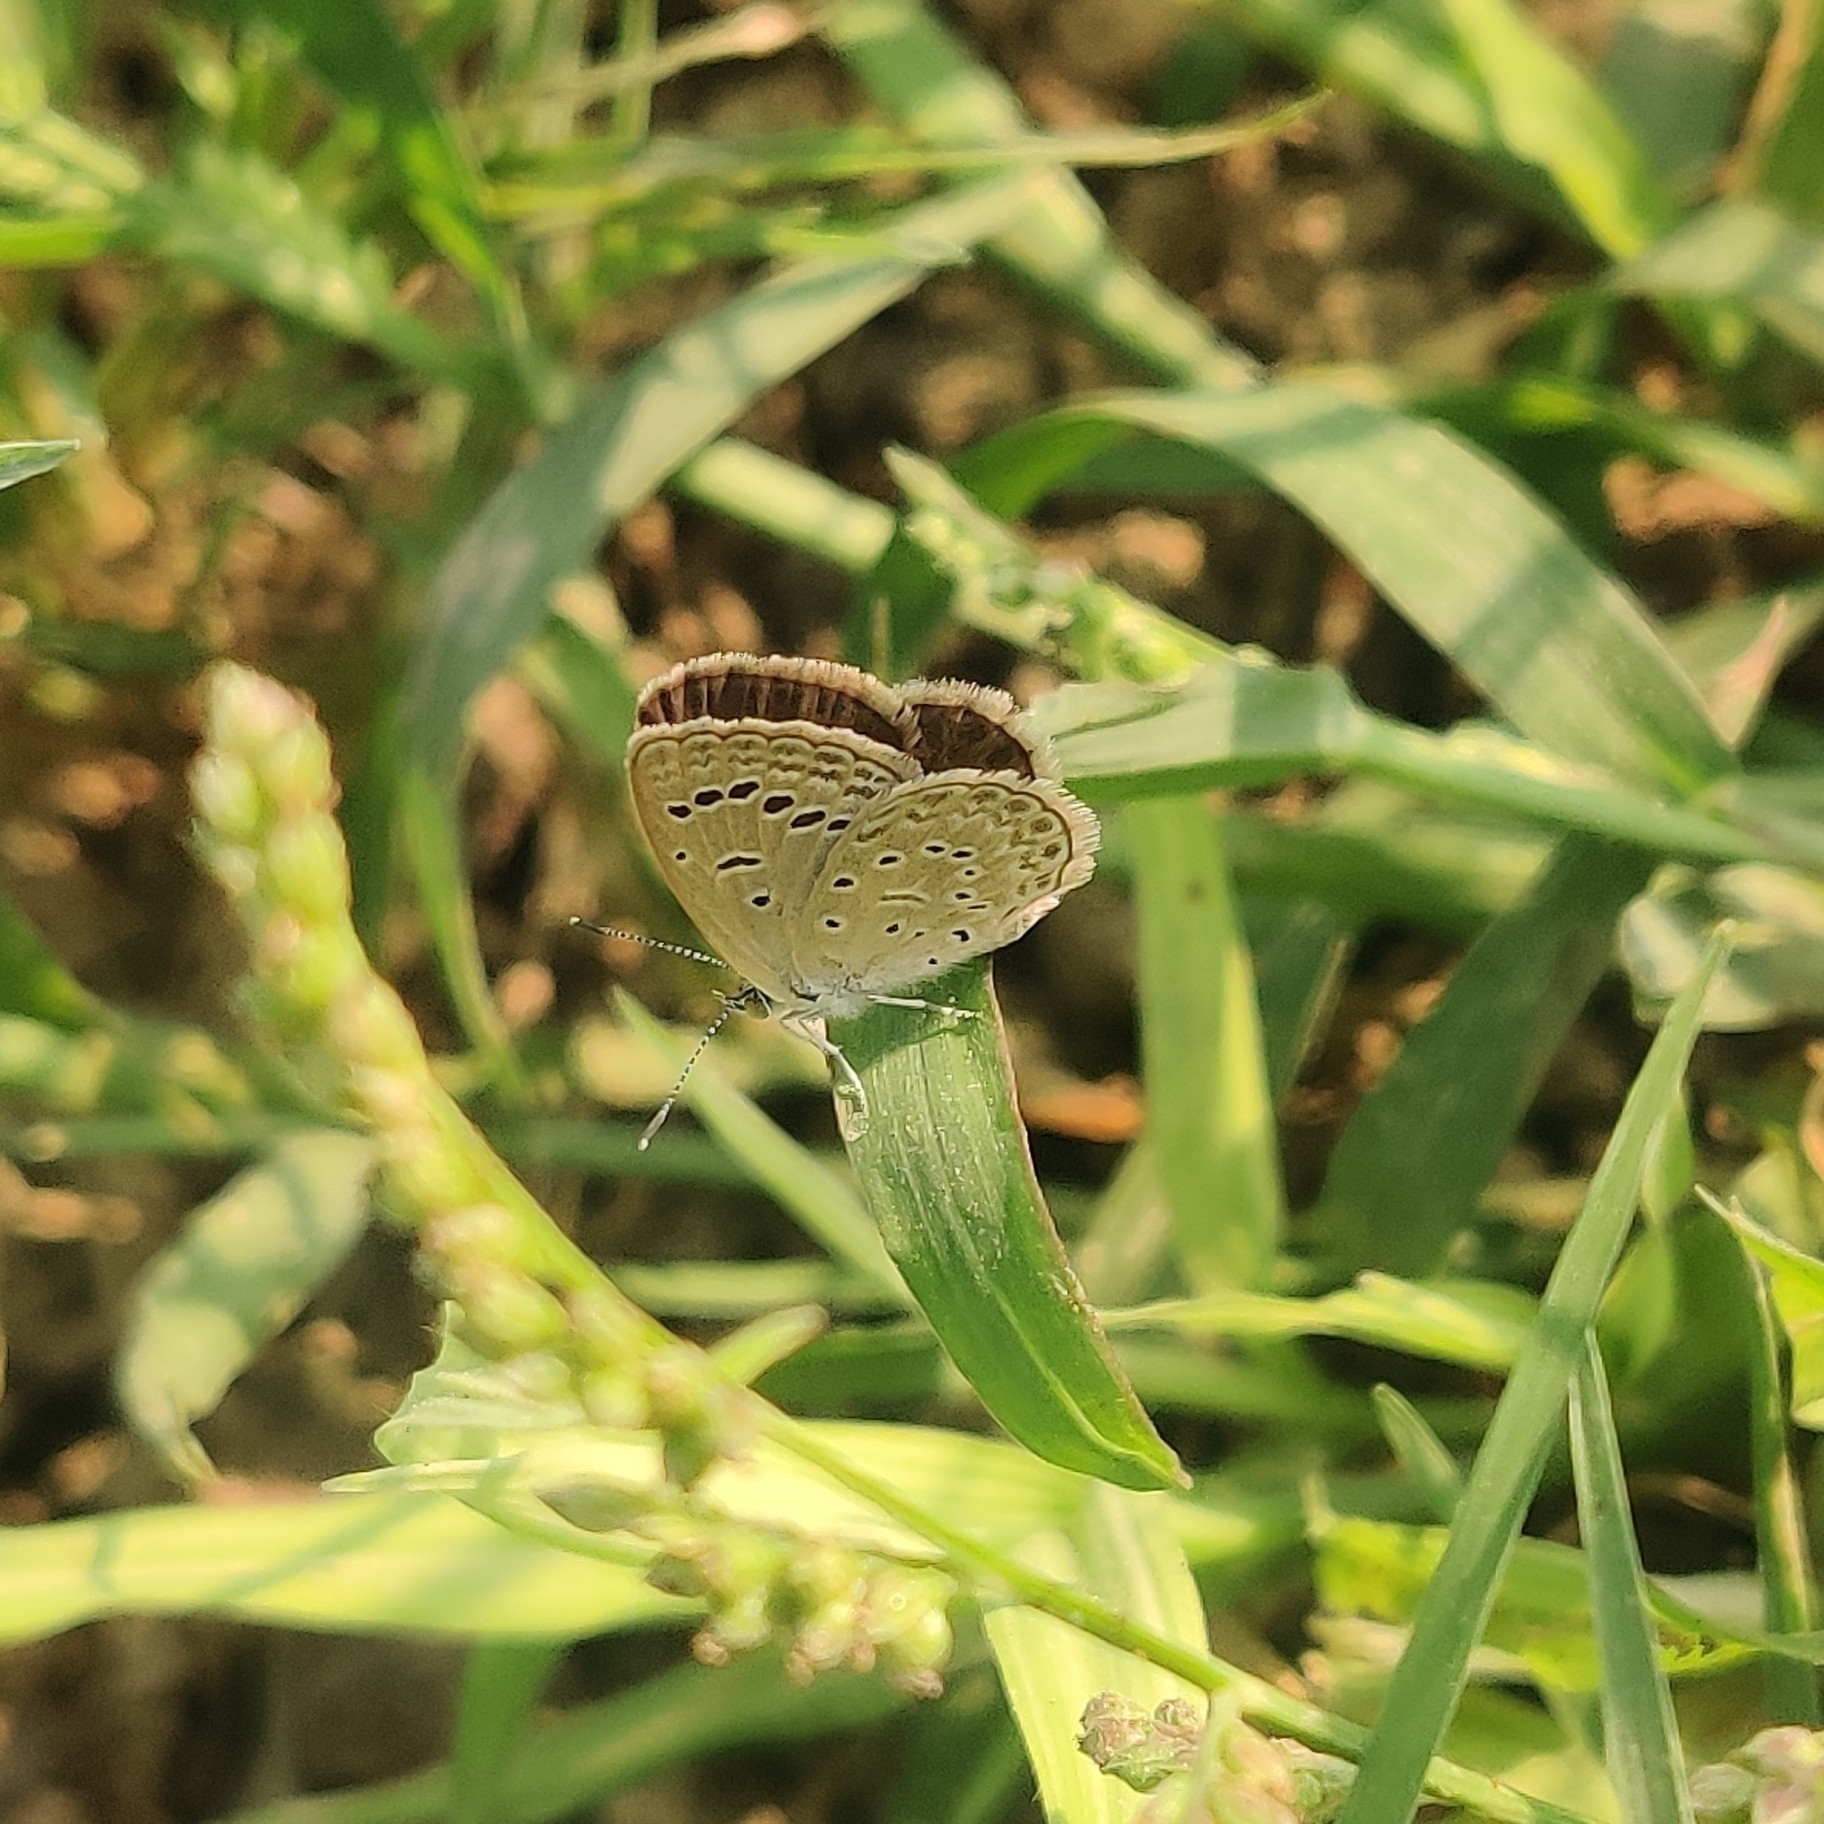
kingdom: Animalia
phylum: Arthropoda
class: Insecta
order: Lepidoptera
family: Lycaenidae
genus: Zizeeria
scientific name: Zizeeria karsandra
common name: Dark grass blue
